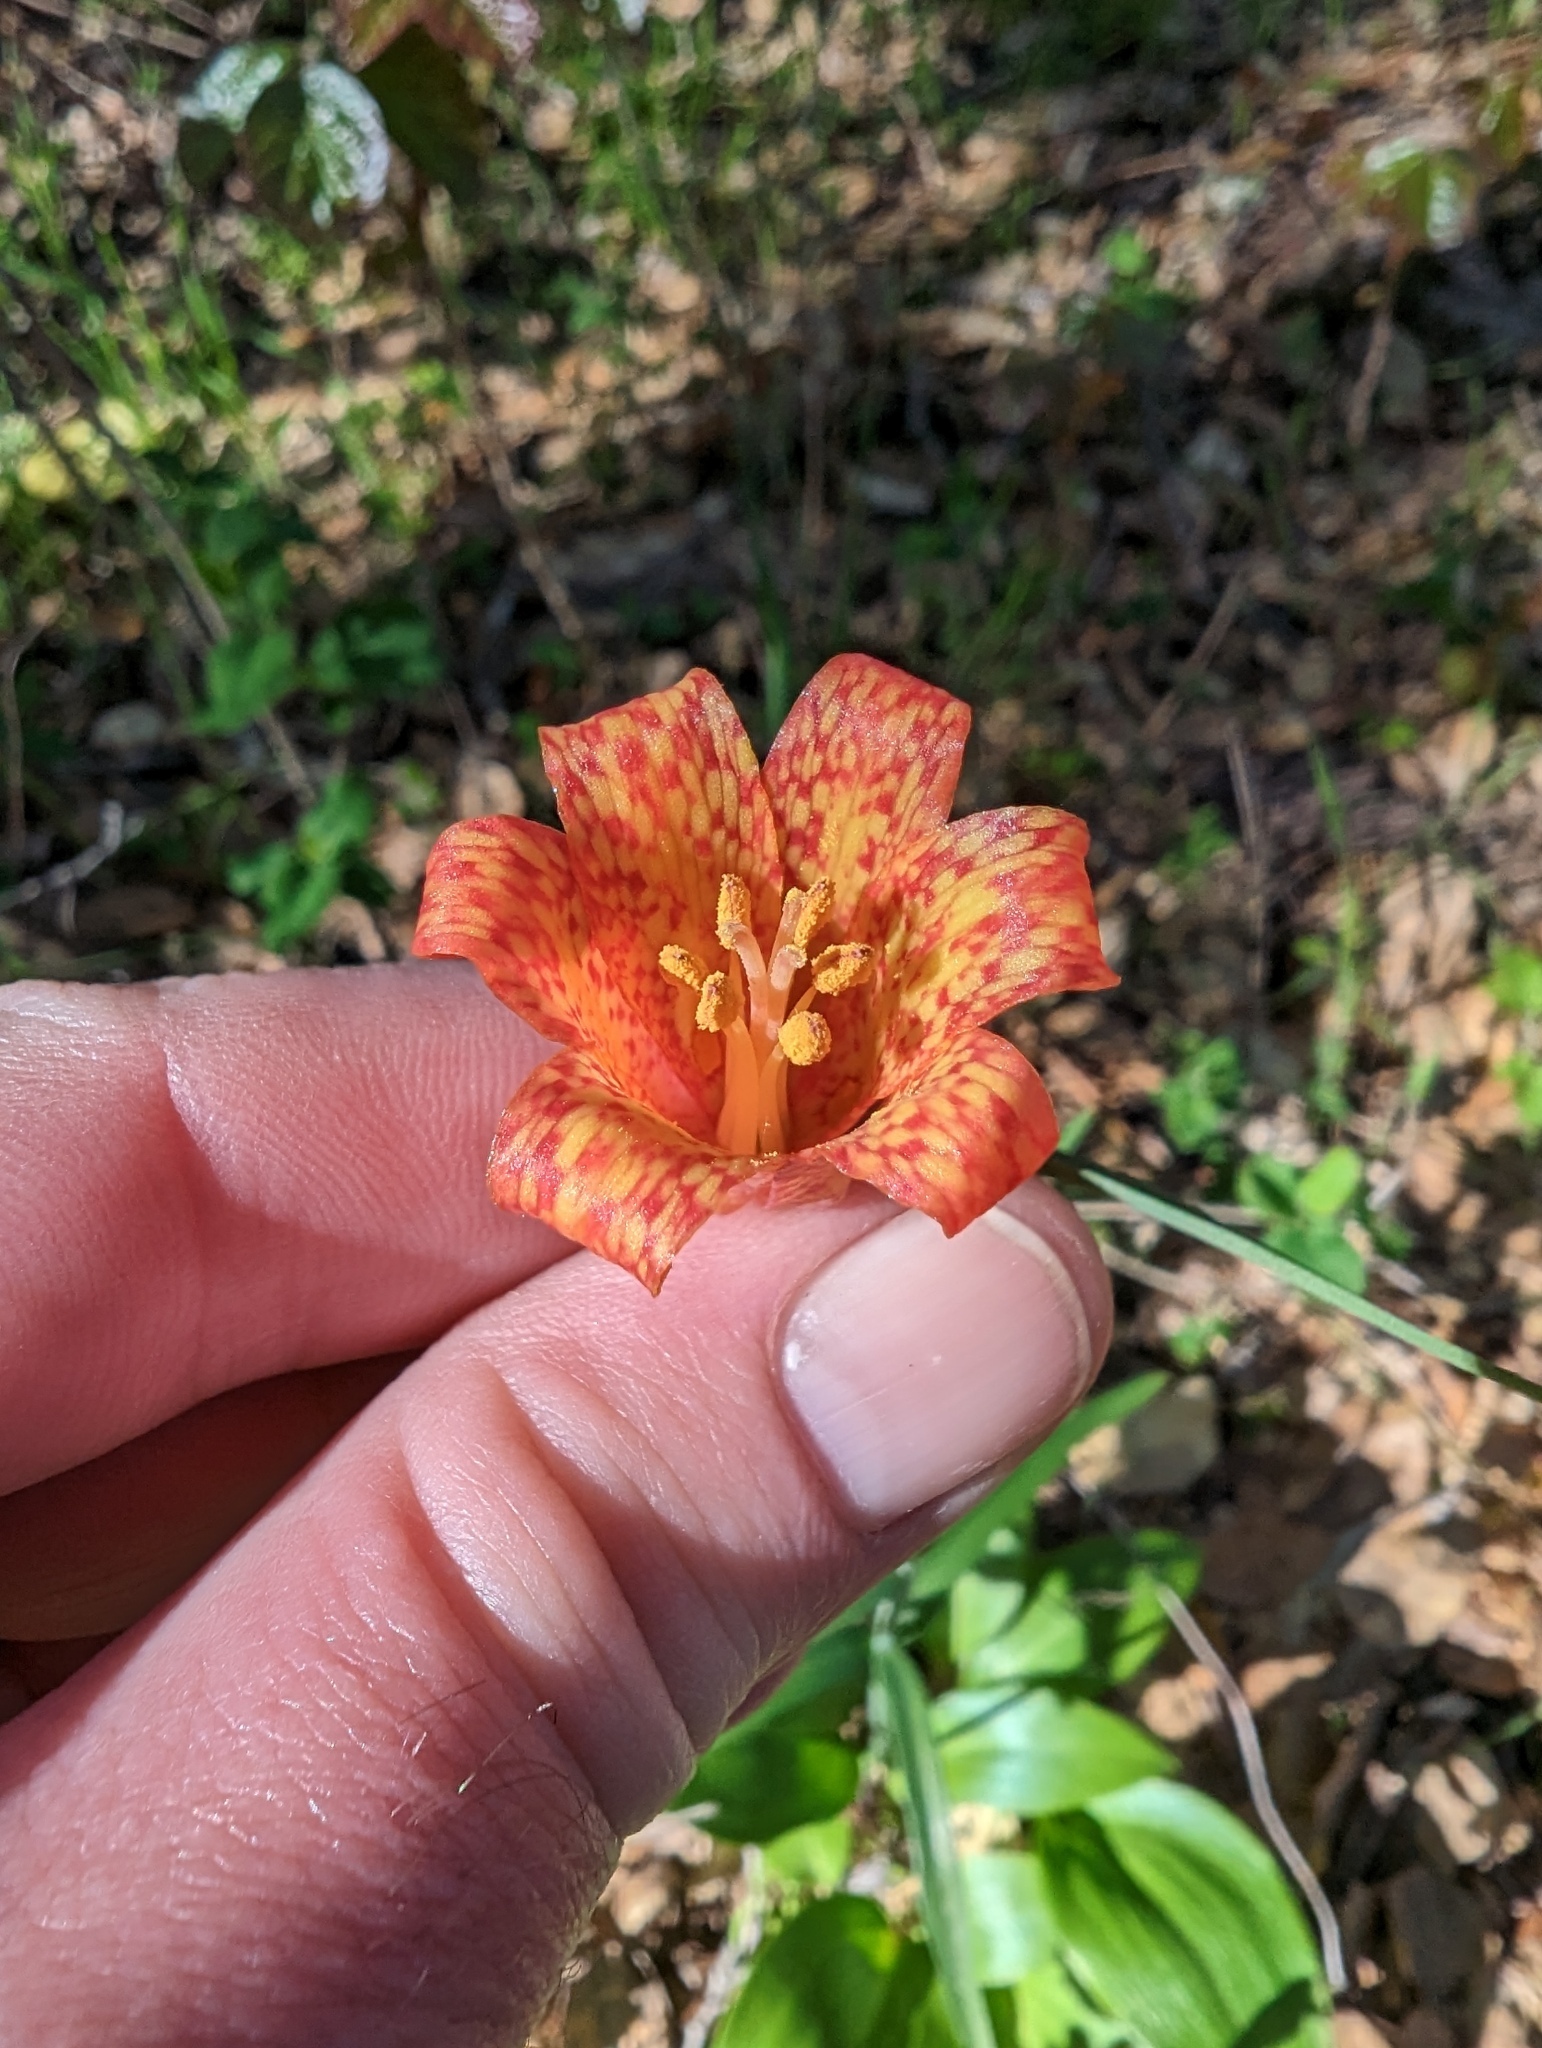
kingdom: Plantae
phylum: Tracheophyta
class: Liliopsida
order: Liliales
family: Liliaceae
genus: Fritillaria
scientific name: Fritillaria recurva
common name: Scarlet fritillary
